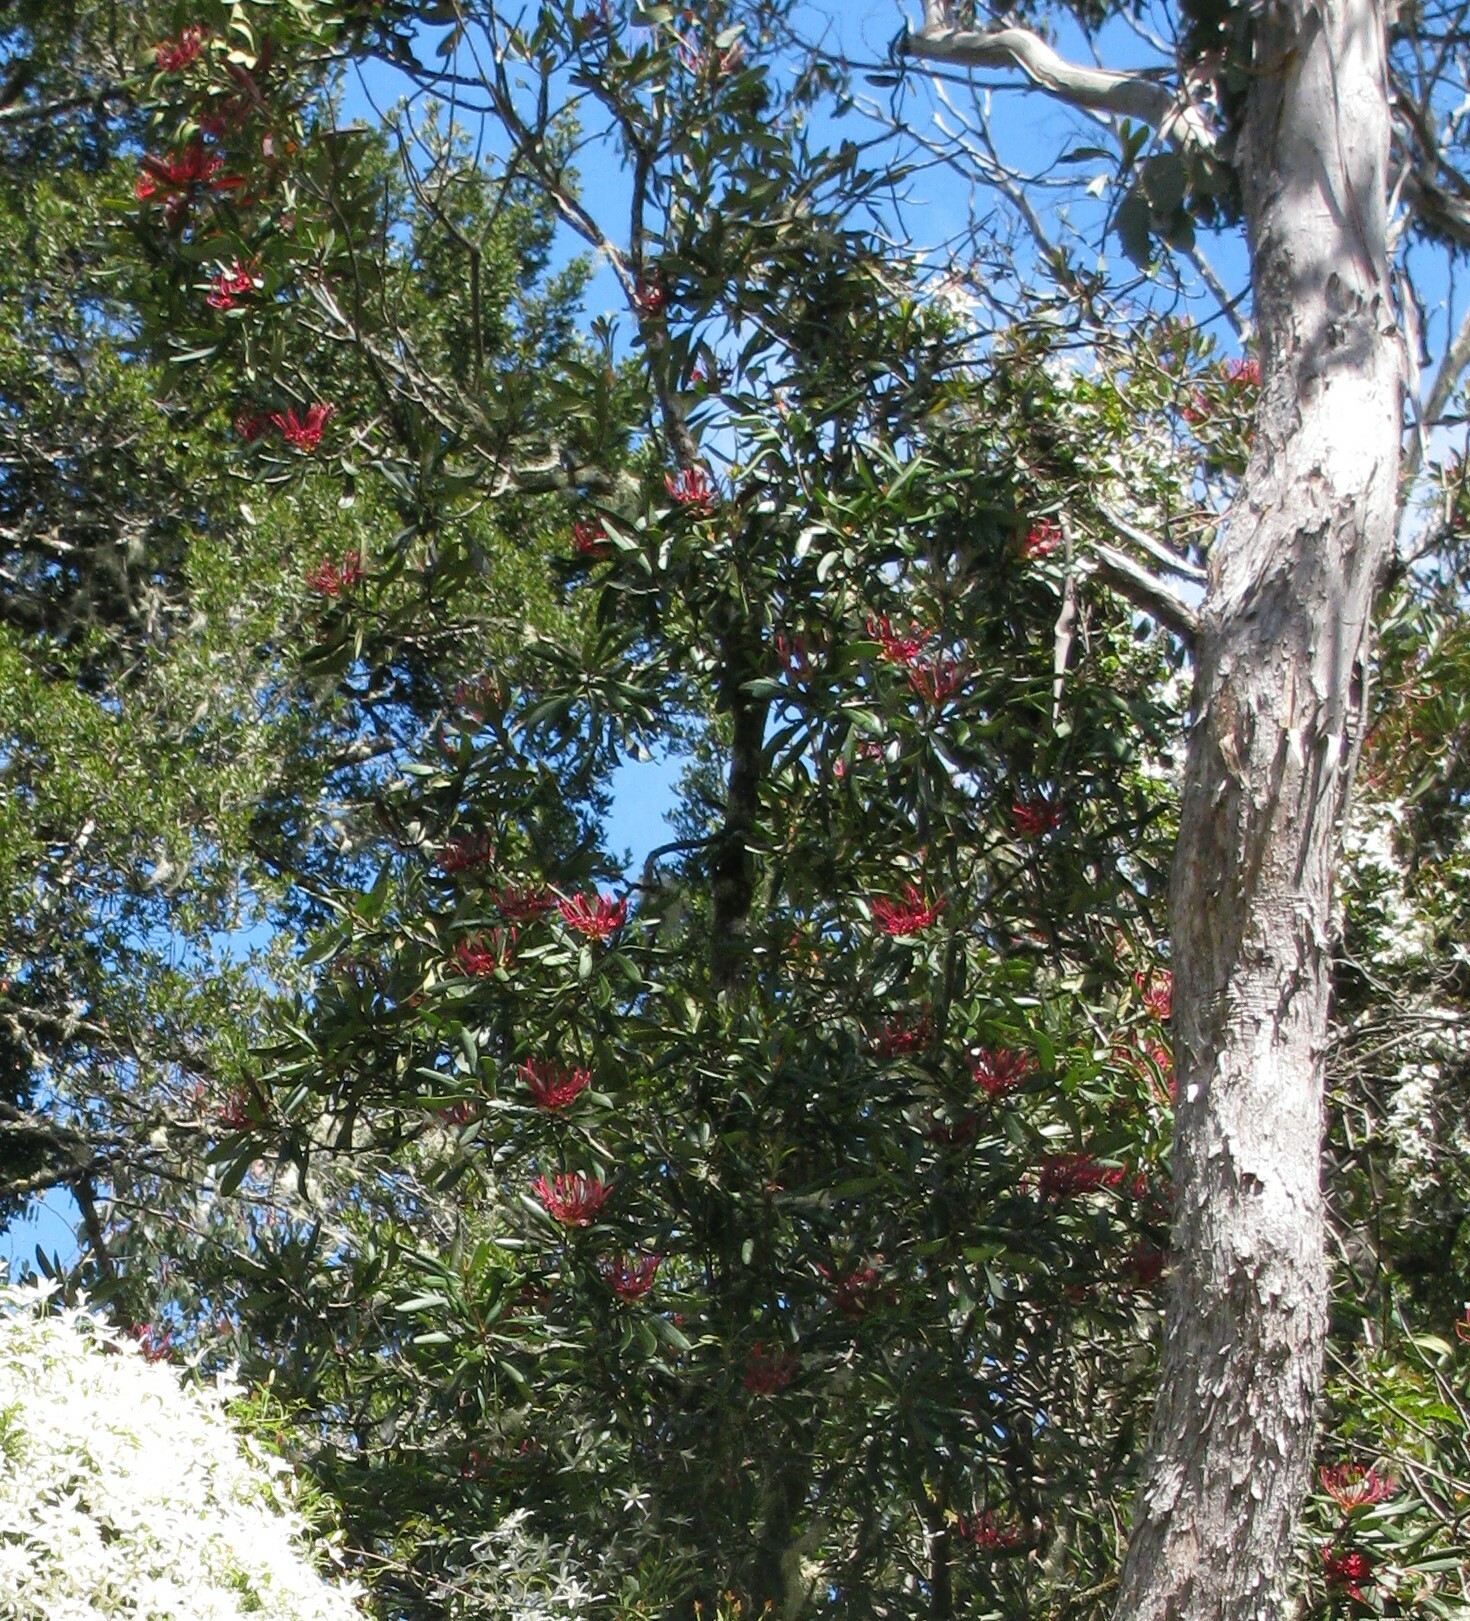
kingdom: Plantae
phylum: Tracheophyta
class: Magnoliopsida
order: Proteales
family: Proteaceae
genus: Telopea
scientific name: Telopea truncata
